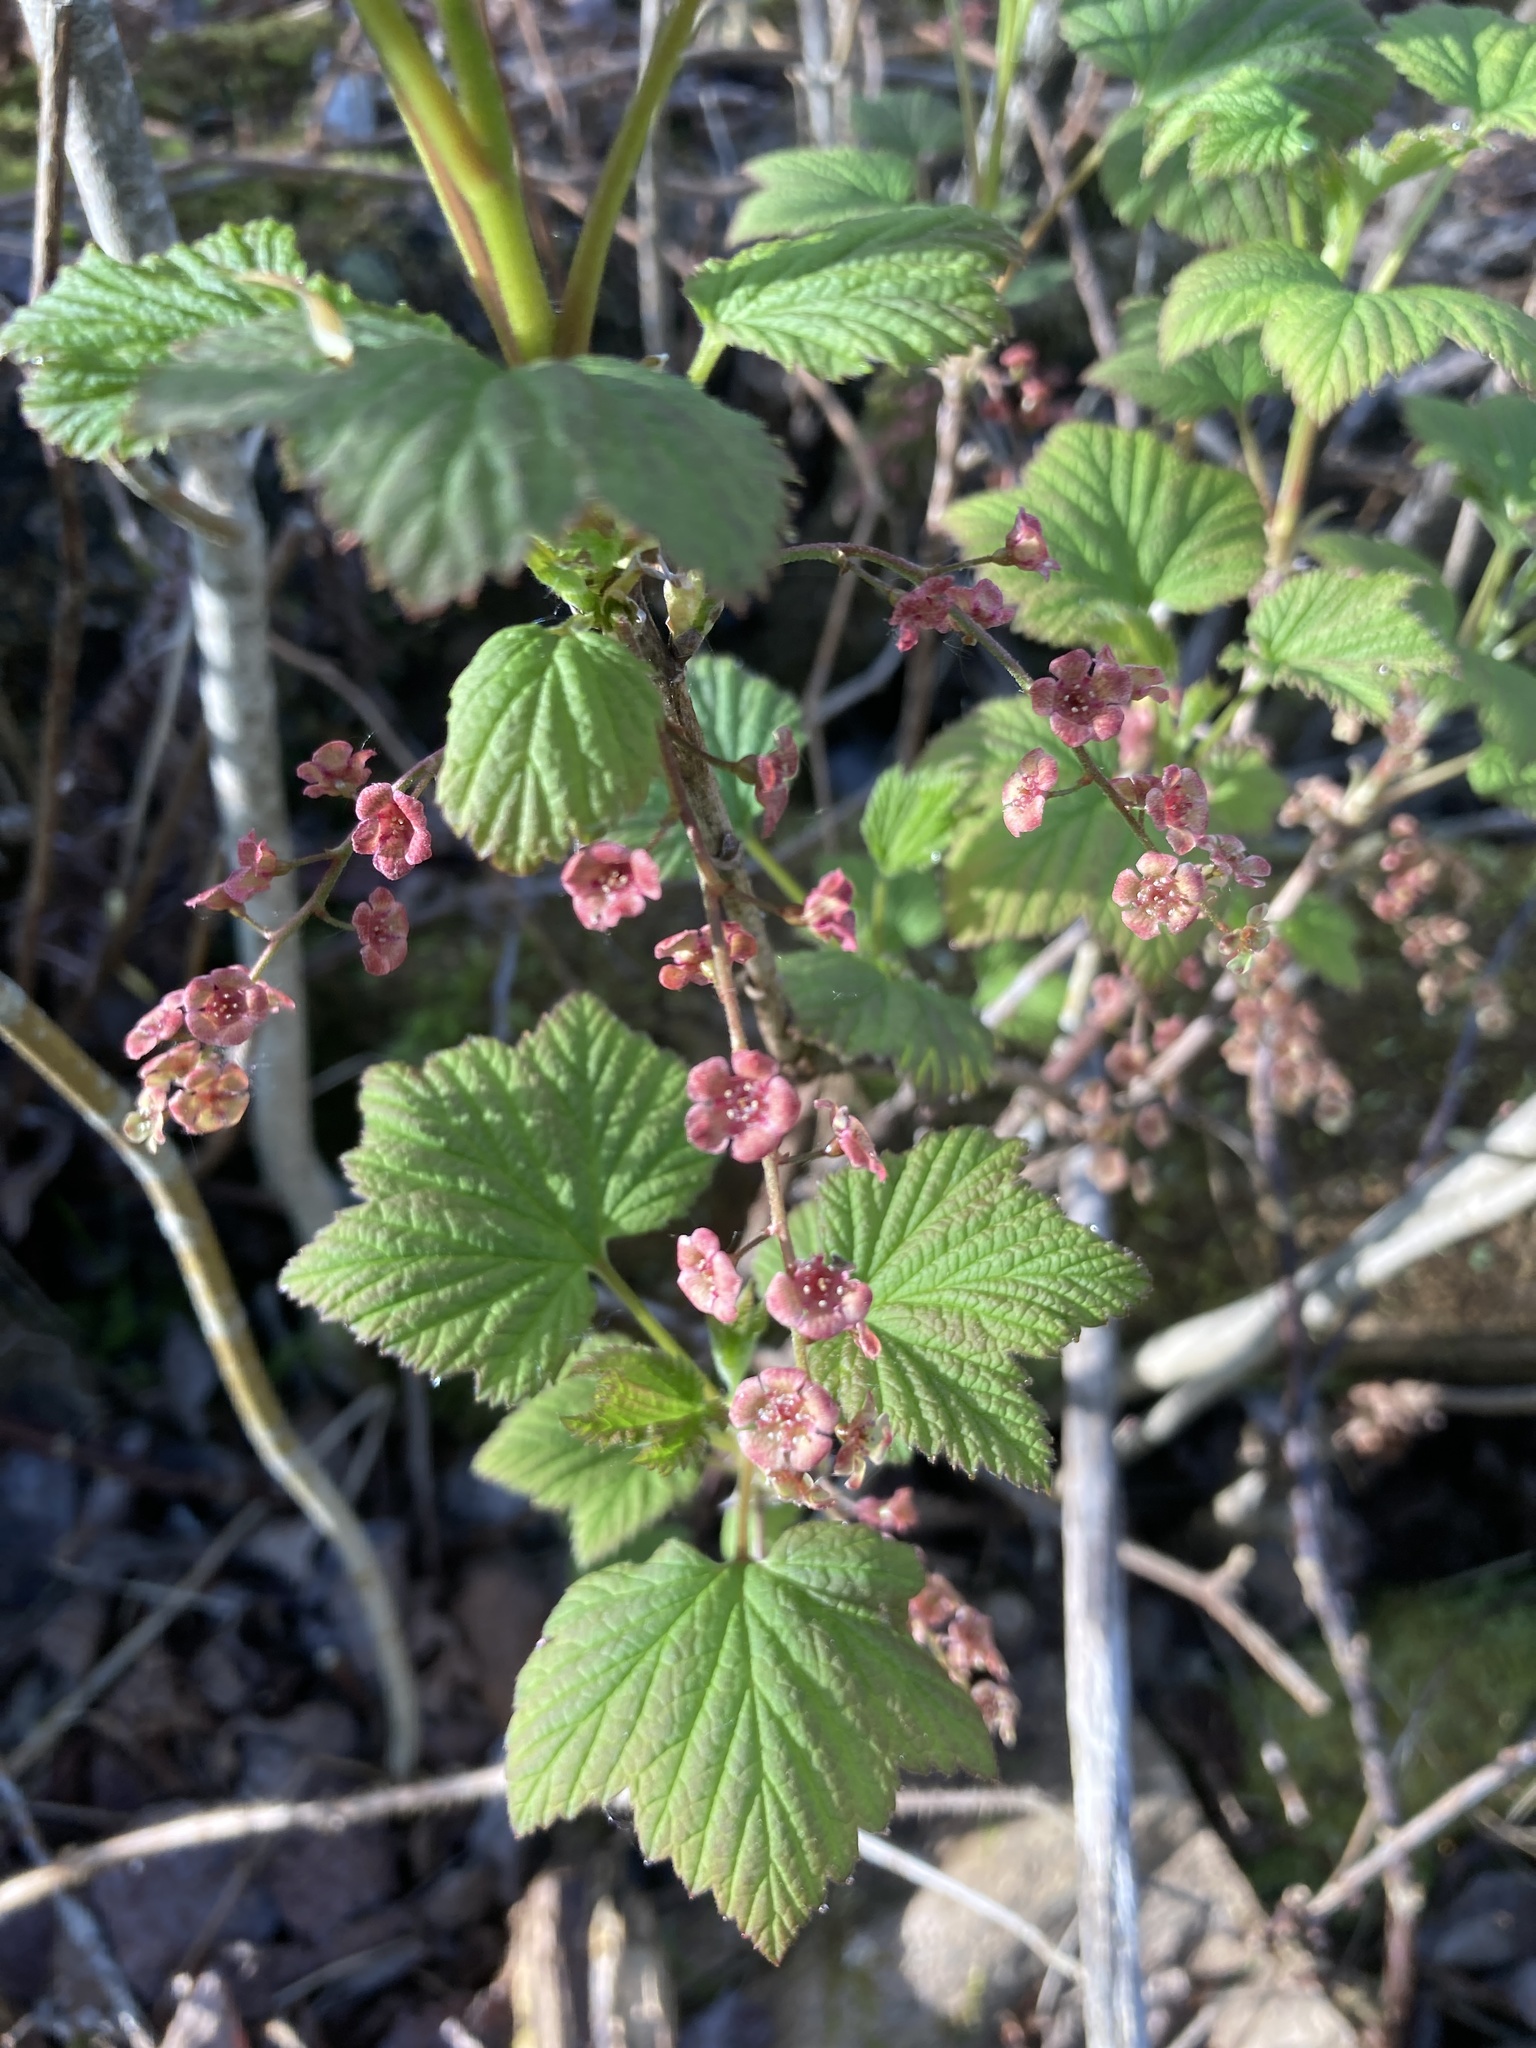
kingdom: Plantae
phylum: Tracheophyta
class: Magnoliopsida
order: Saxifragales
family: Grossulariaceae
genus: Ribes
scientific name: Ribes triste
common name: Swamp red currant
